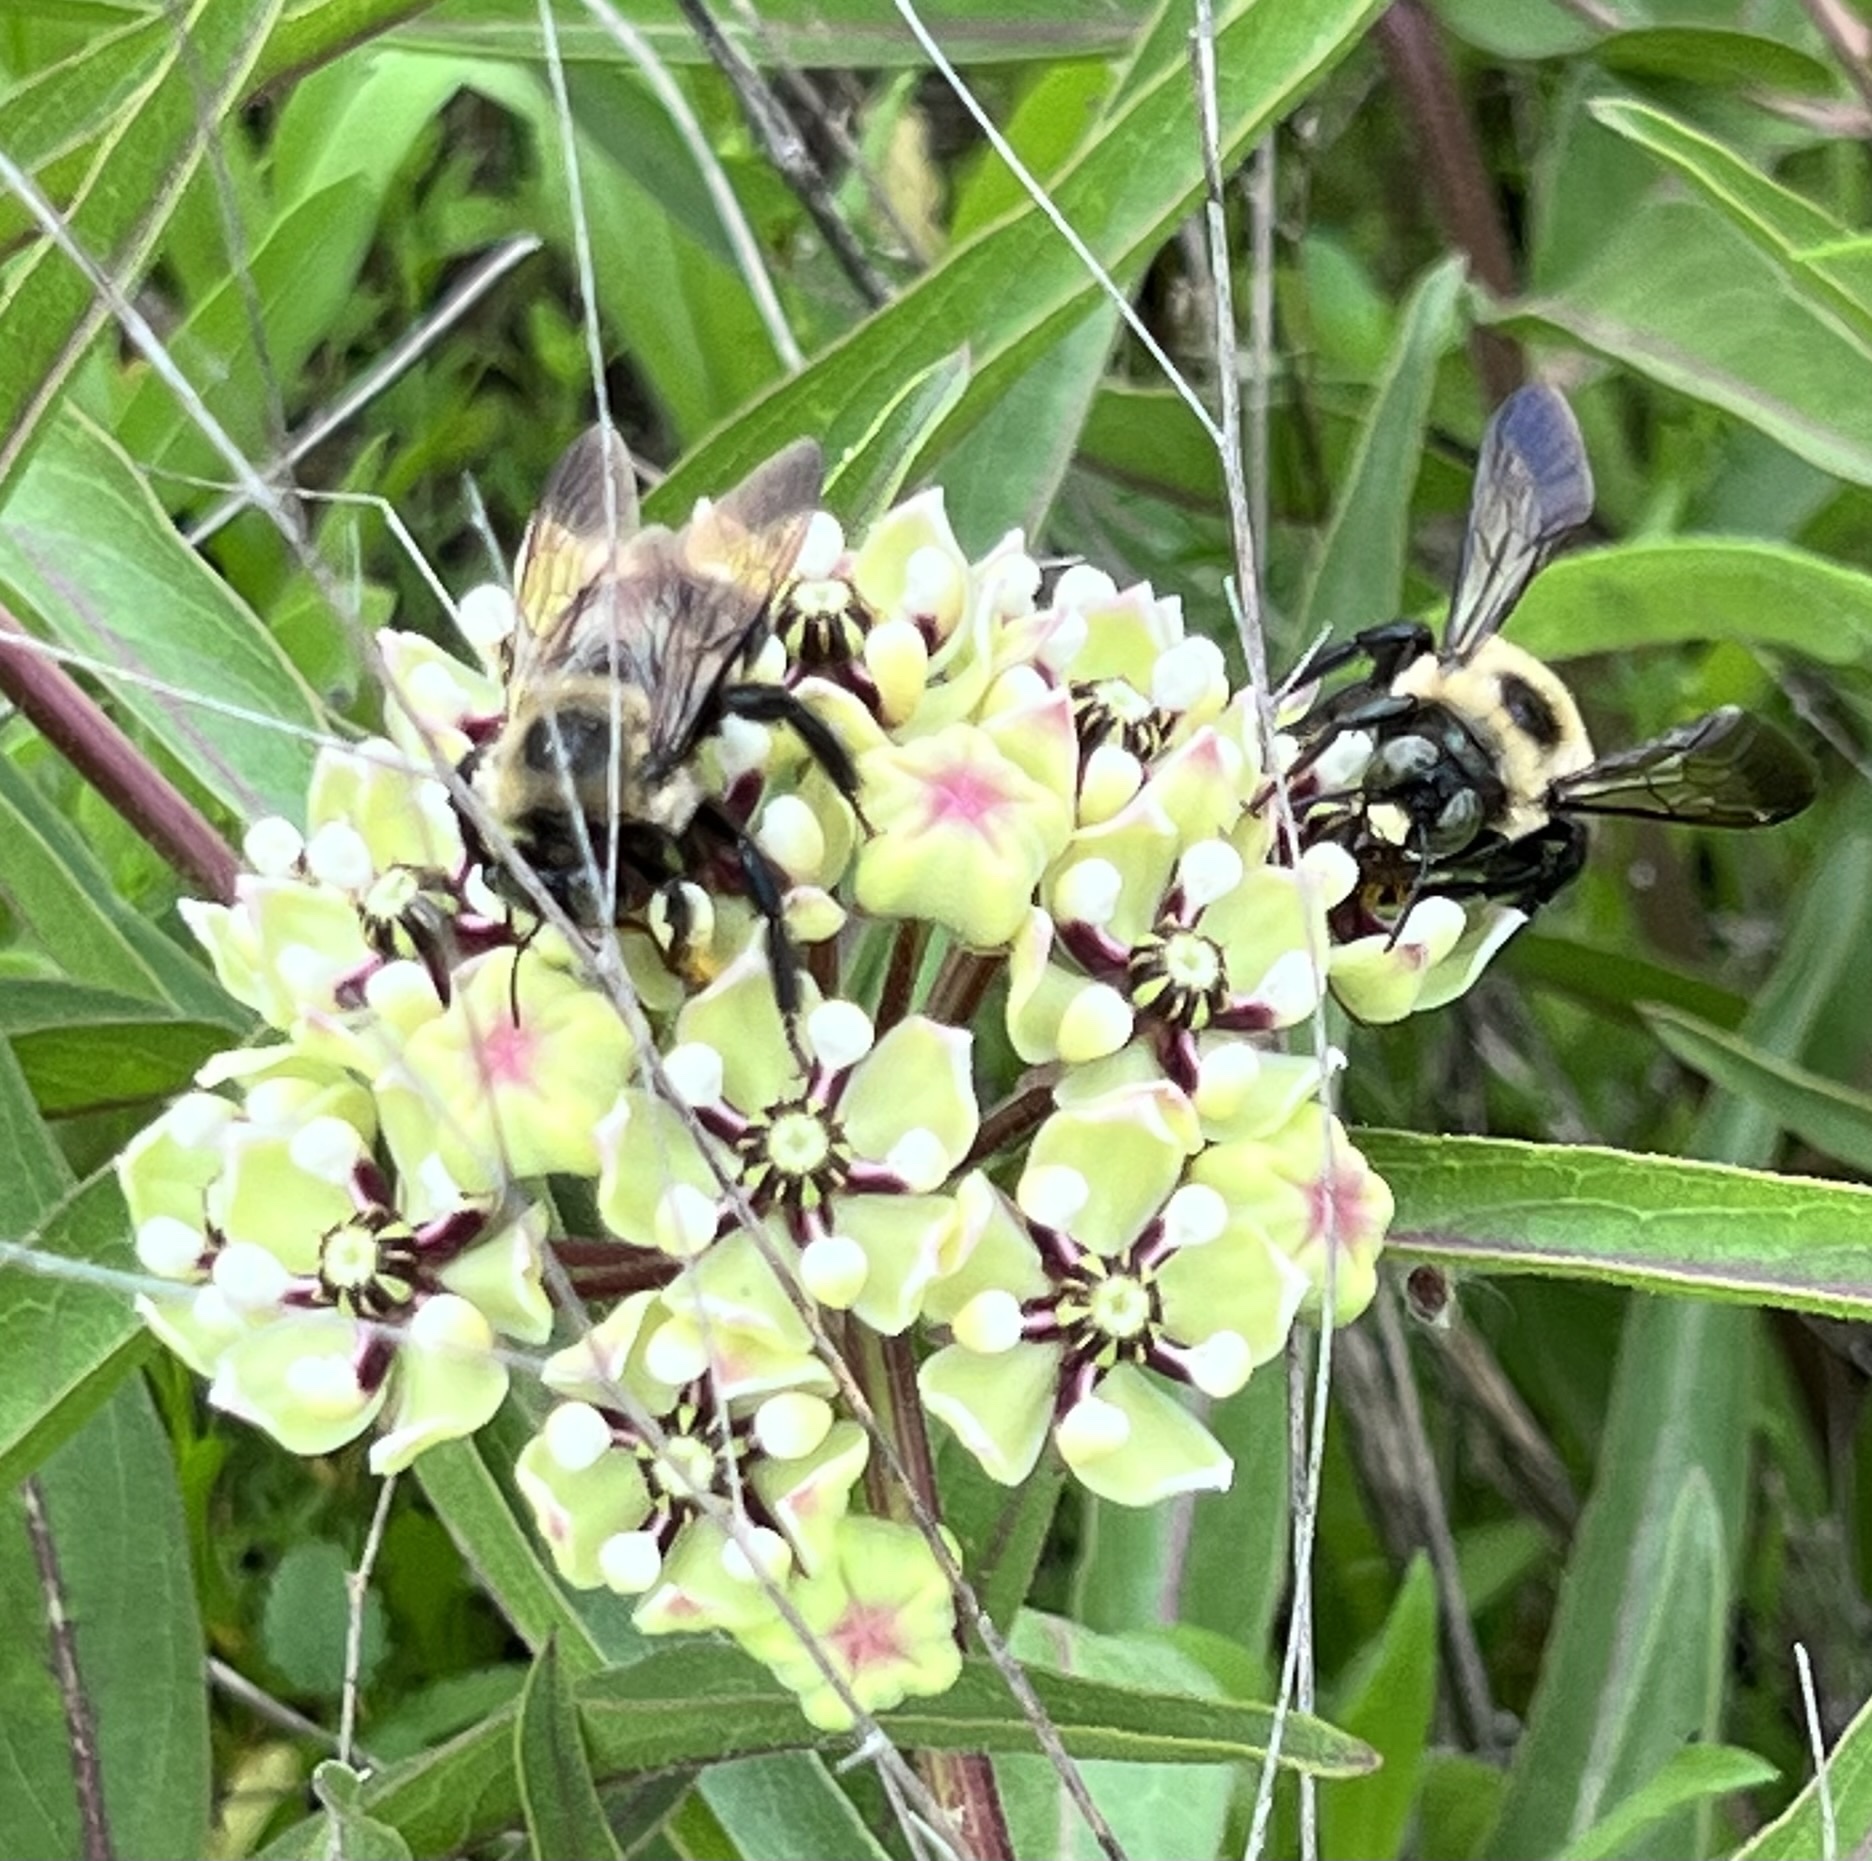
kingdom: Animalia
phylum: Arthropoda
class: Insecta
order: Hymenoptera
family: Apidae
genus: Xylocopa
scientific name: Xylocopa virginica
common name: Carpenter bee
